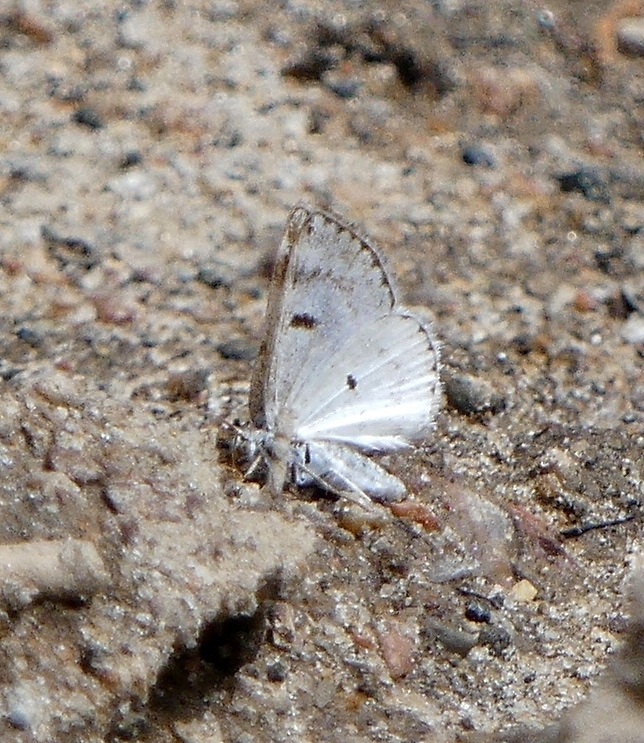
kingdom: Animalia
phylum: Arthropoda
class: Insecta
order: Lepidoptera
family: Geometridae
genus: Lomographa
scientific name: Lomographa semiclarata
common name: Bluish spring moth
